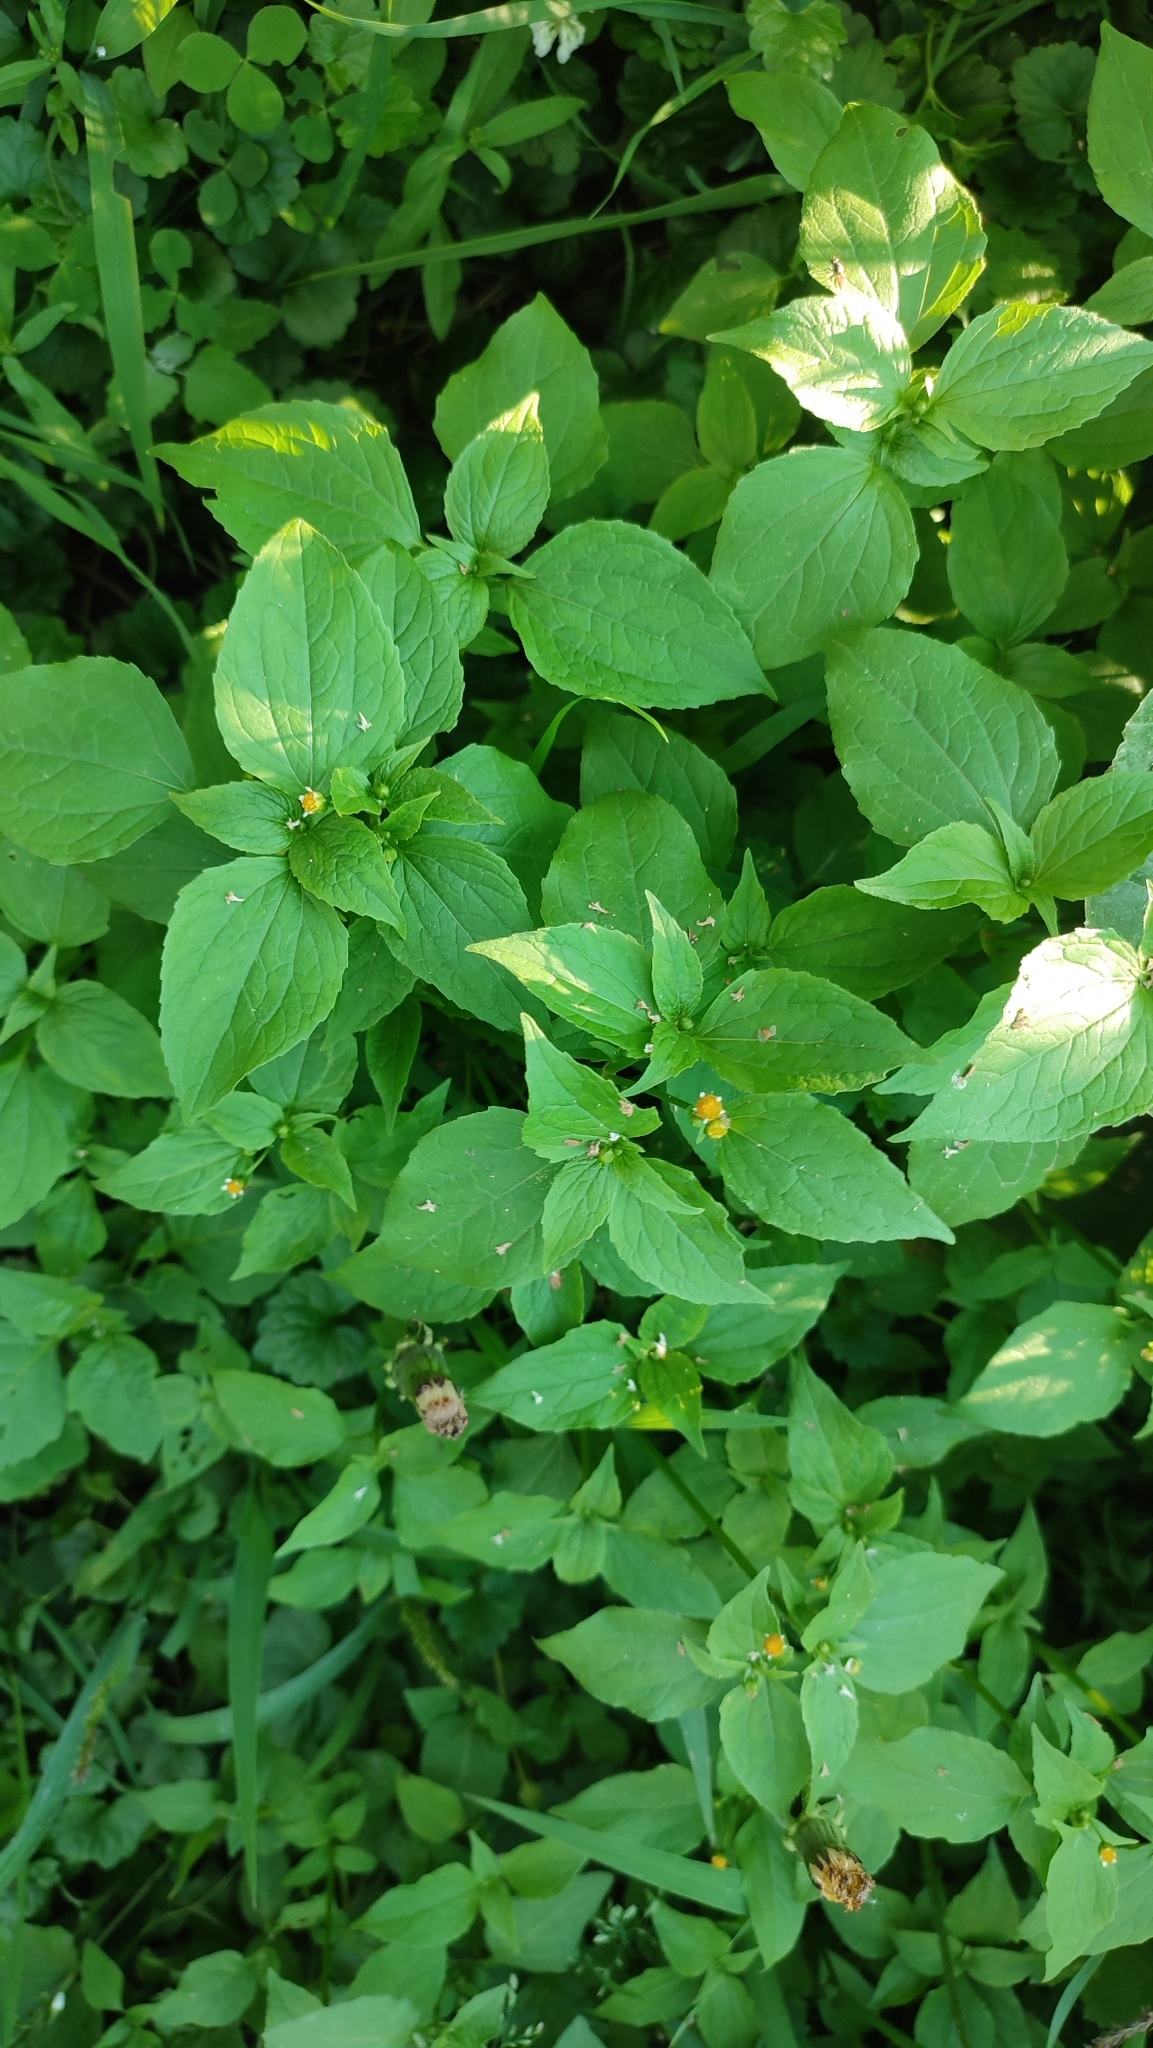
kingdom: Plantae
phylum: Tracheophyta
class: Magnoliopsida
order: Asterales
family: Asteraceae
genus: Galinsoga
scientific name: Galinsoga parviflora
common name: Gallant soldier
